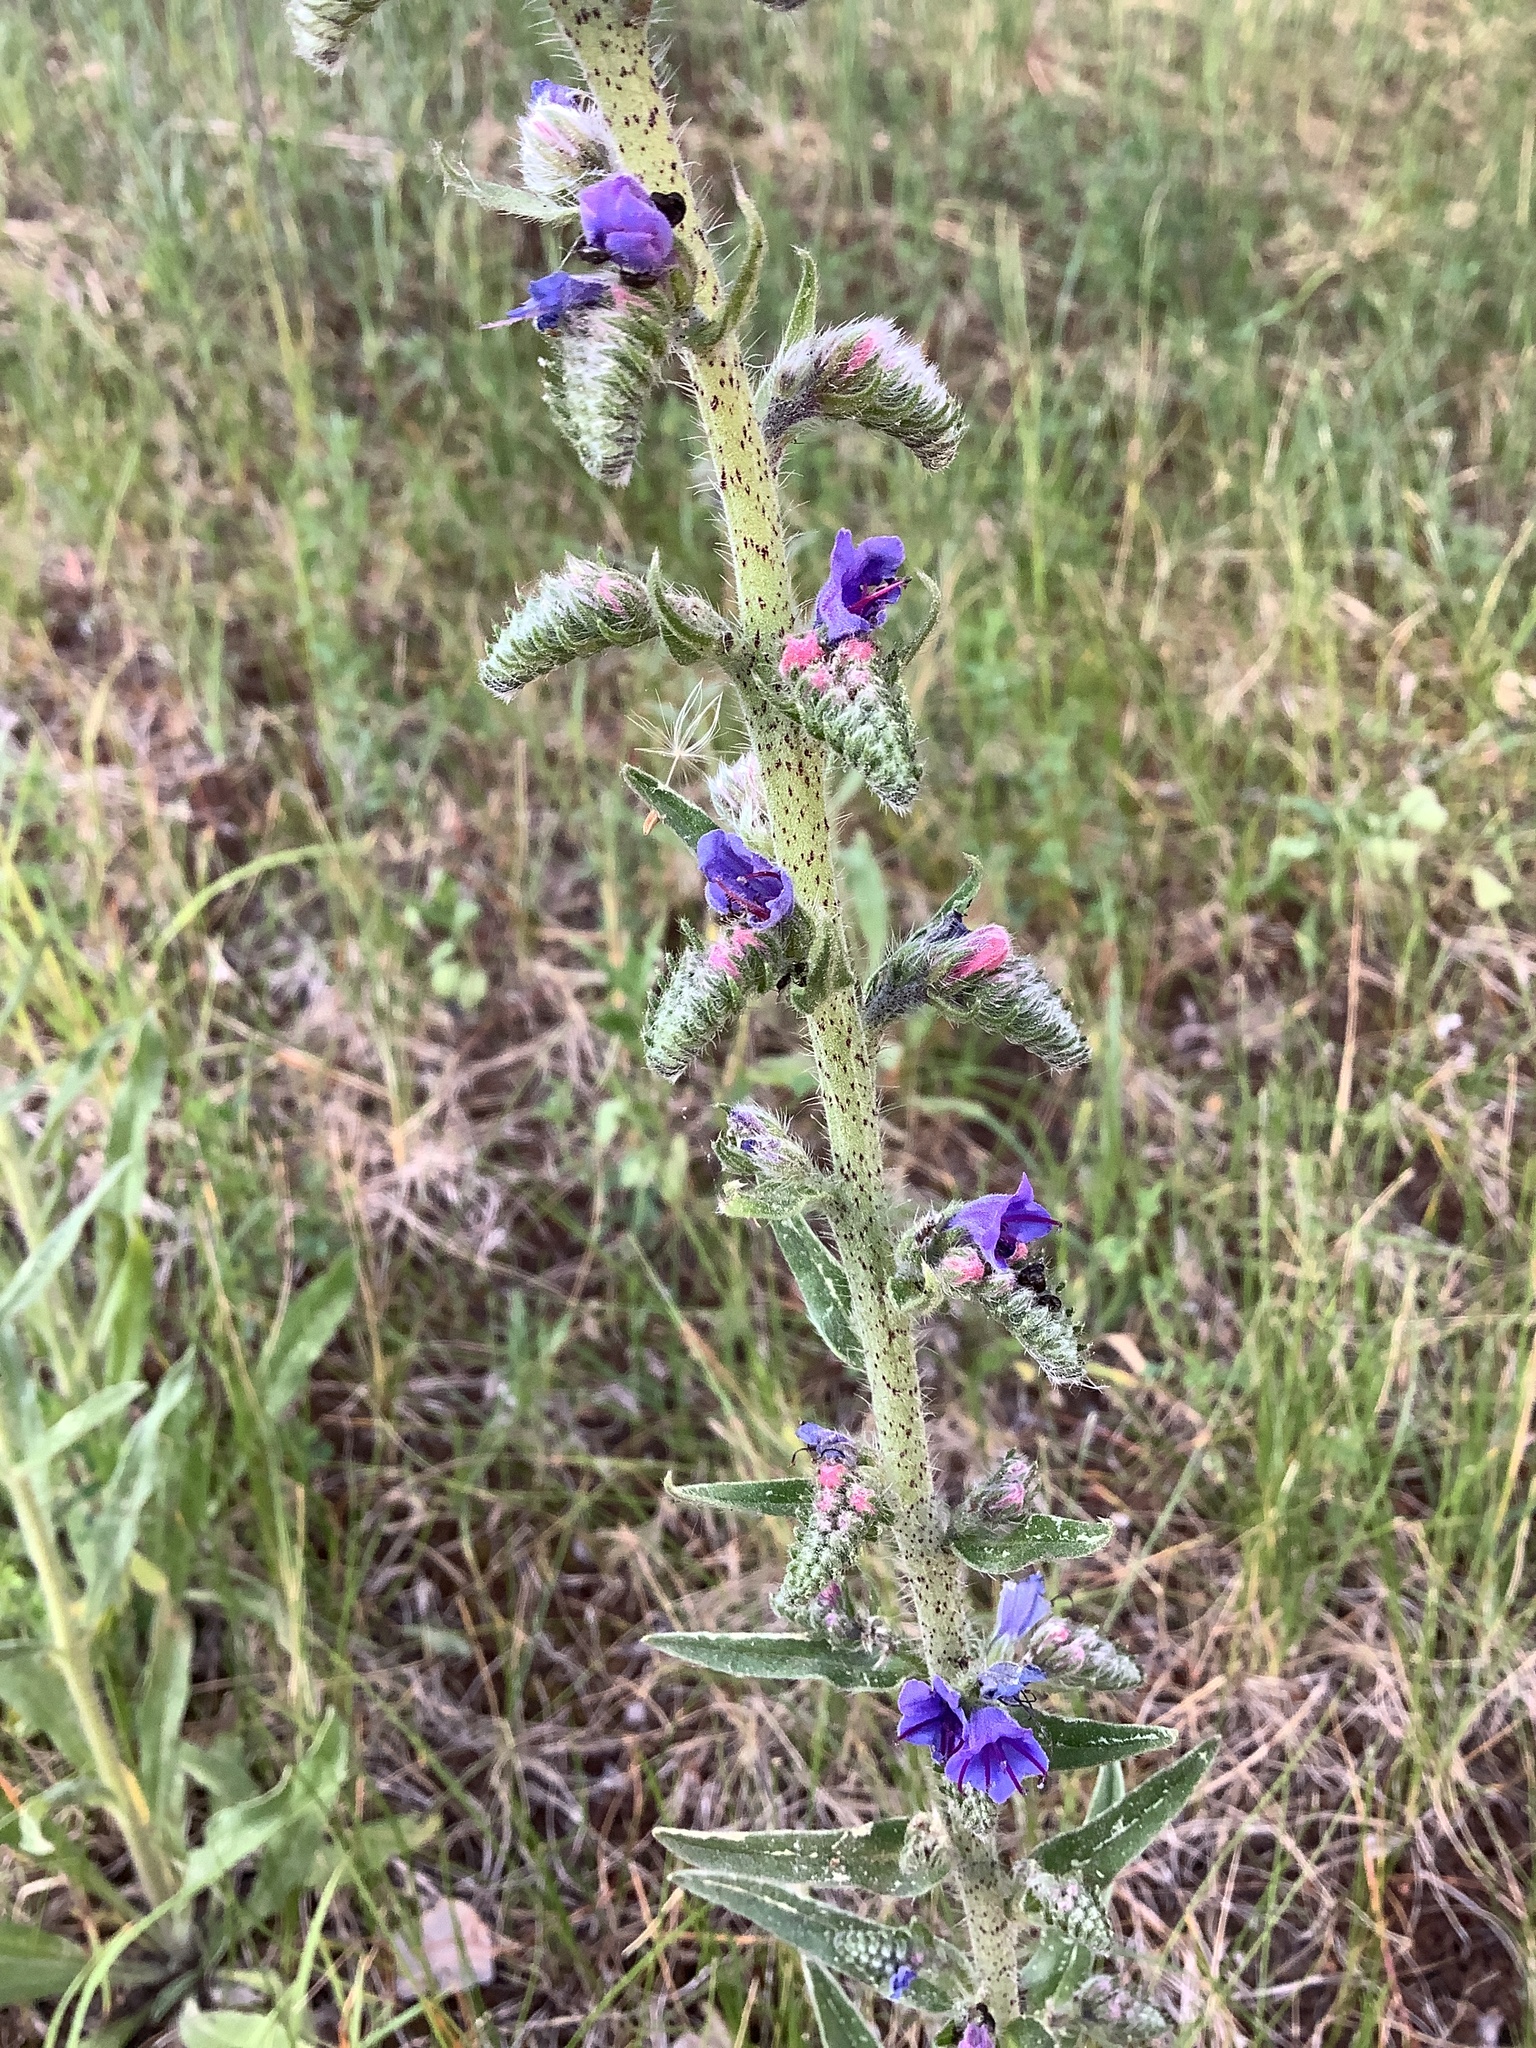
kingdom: Plantae
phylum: Tracheophyta
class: Magnoliopsida
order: Boraginales
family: Boraginaceae
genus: Echium
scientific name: Echium vulgare
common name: Common viper's bugloss
